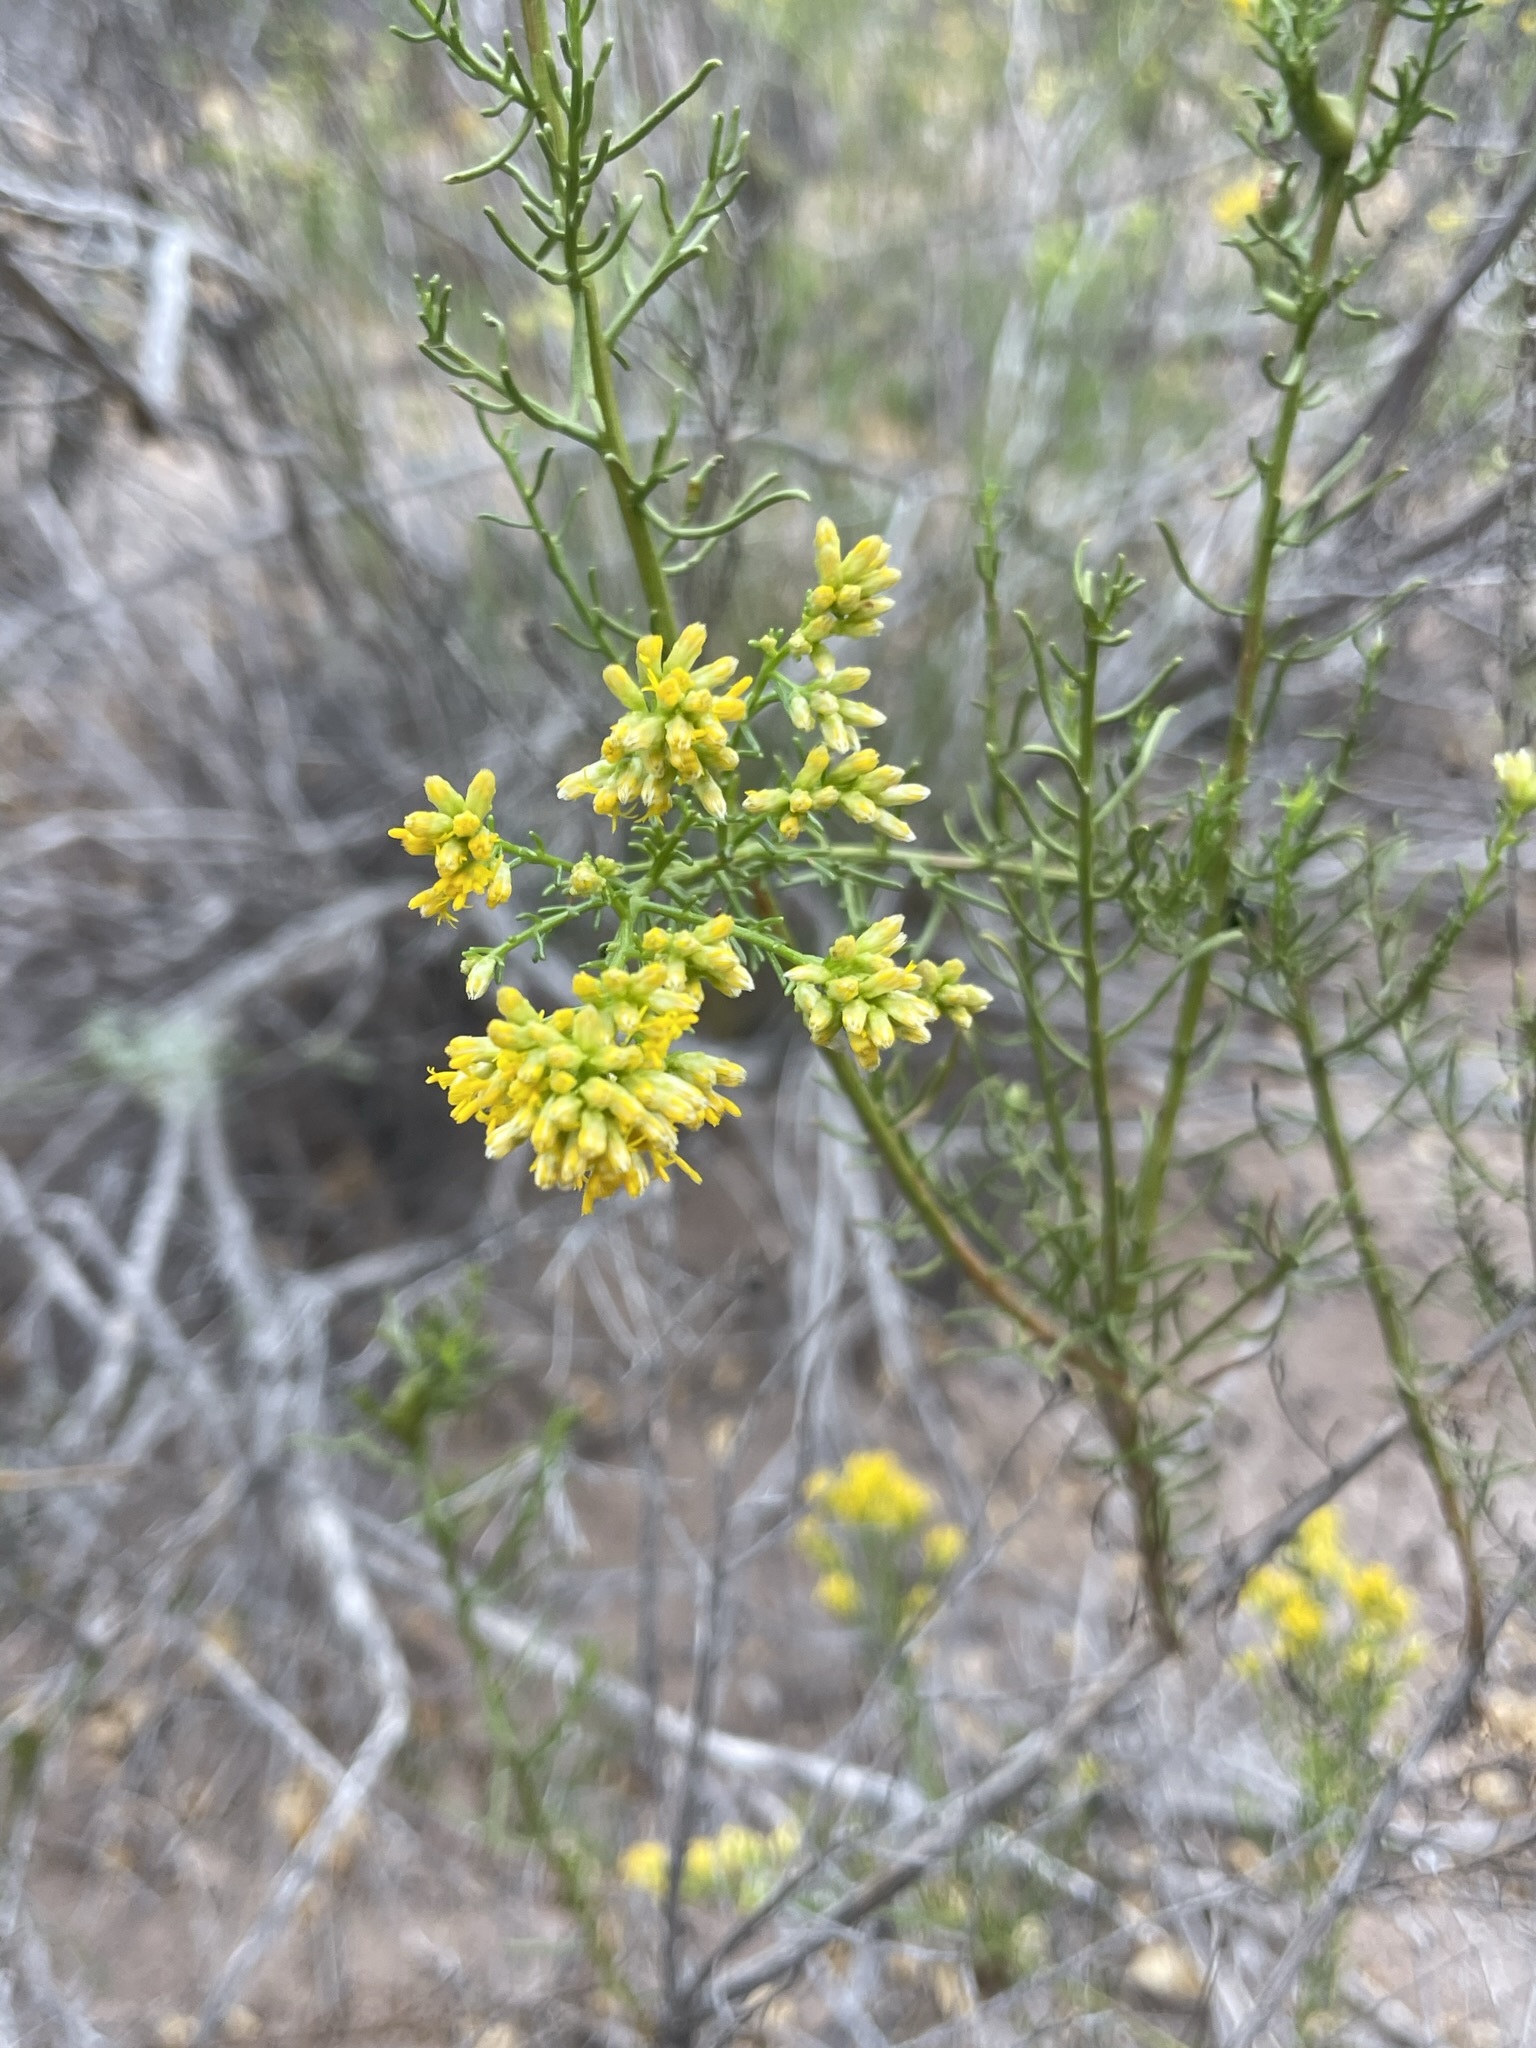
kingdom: Plantae
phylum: Tracheophyta
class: Magnoliopsida
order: Asterales
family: Asteraceae
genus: Gundlachia
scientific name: Gundlachia diffusa
